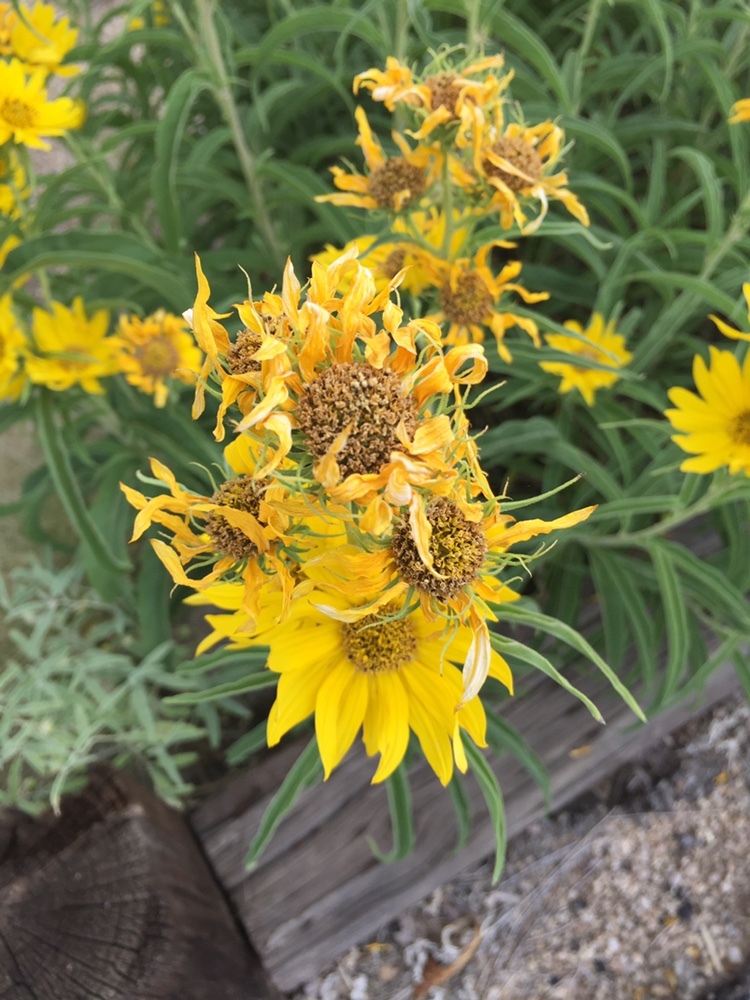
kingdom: Plantae
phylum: Tracheophyta
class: Magnoliopsida
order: Asterales
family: Asteraceae
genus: Helianthus
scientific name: Helianthus maximiliani
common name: Maximilian's sunflower
